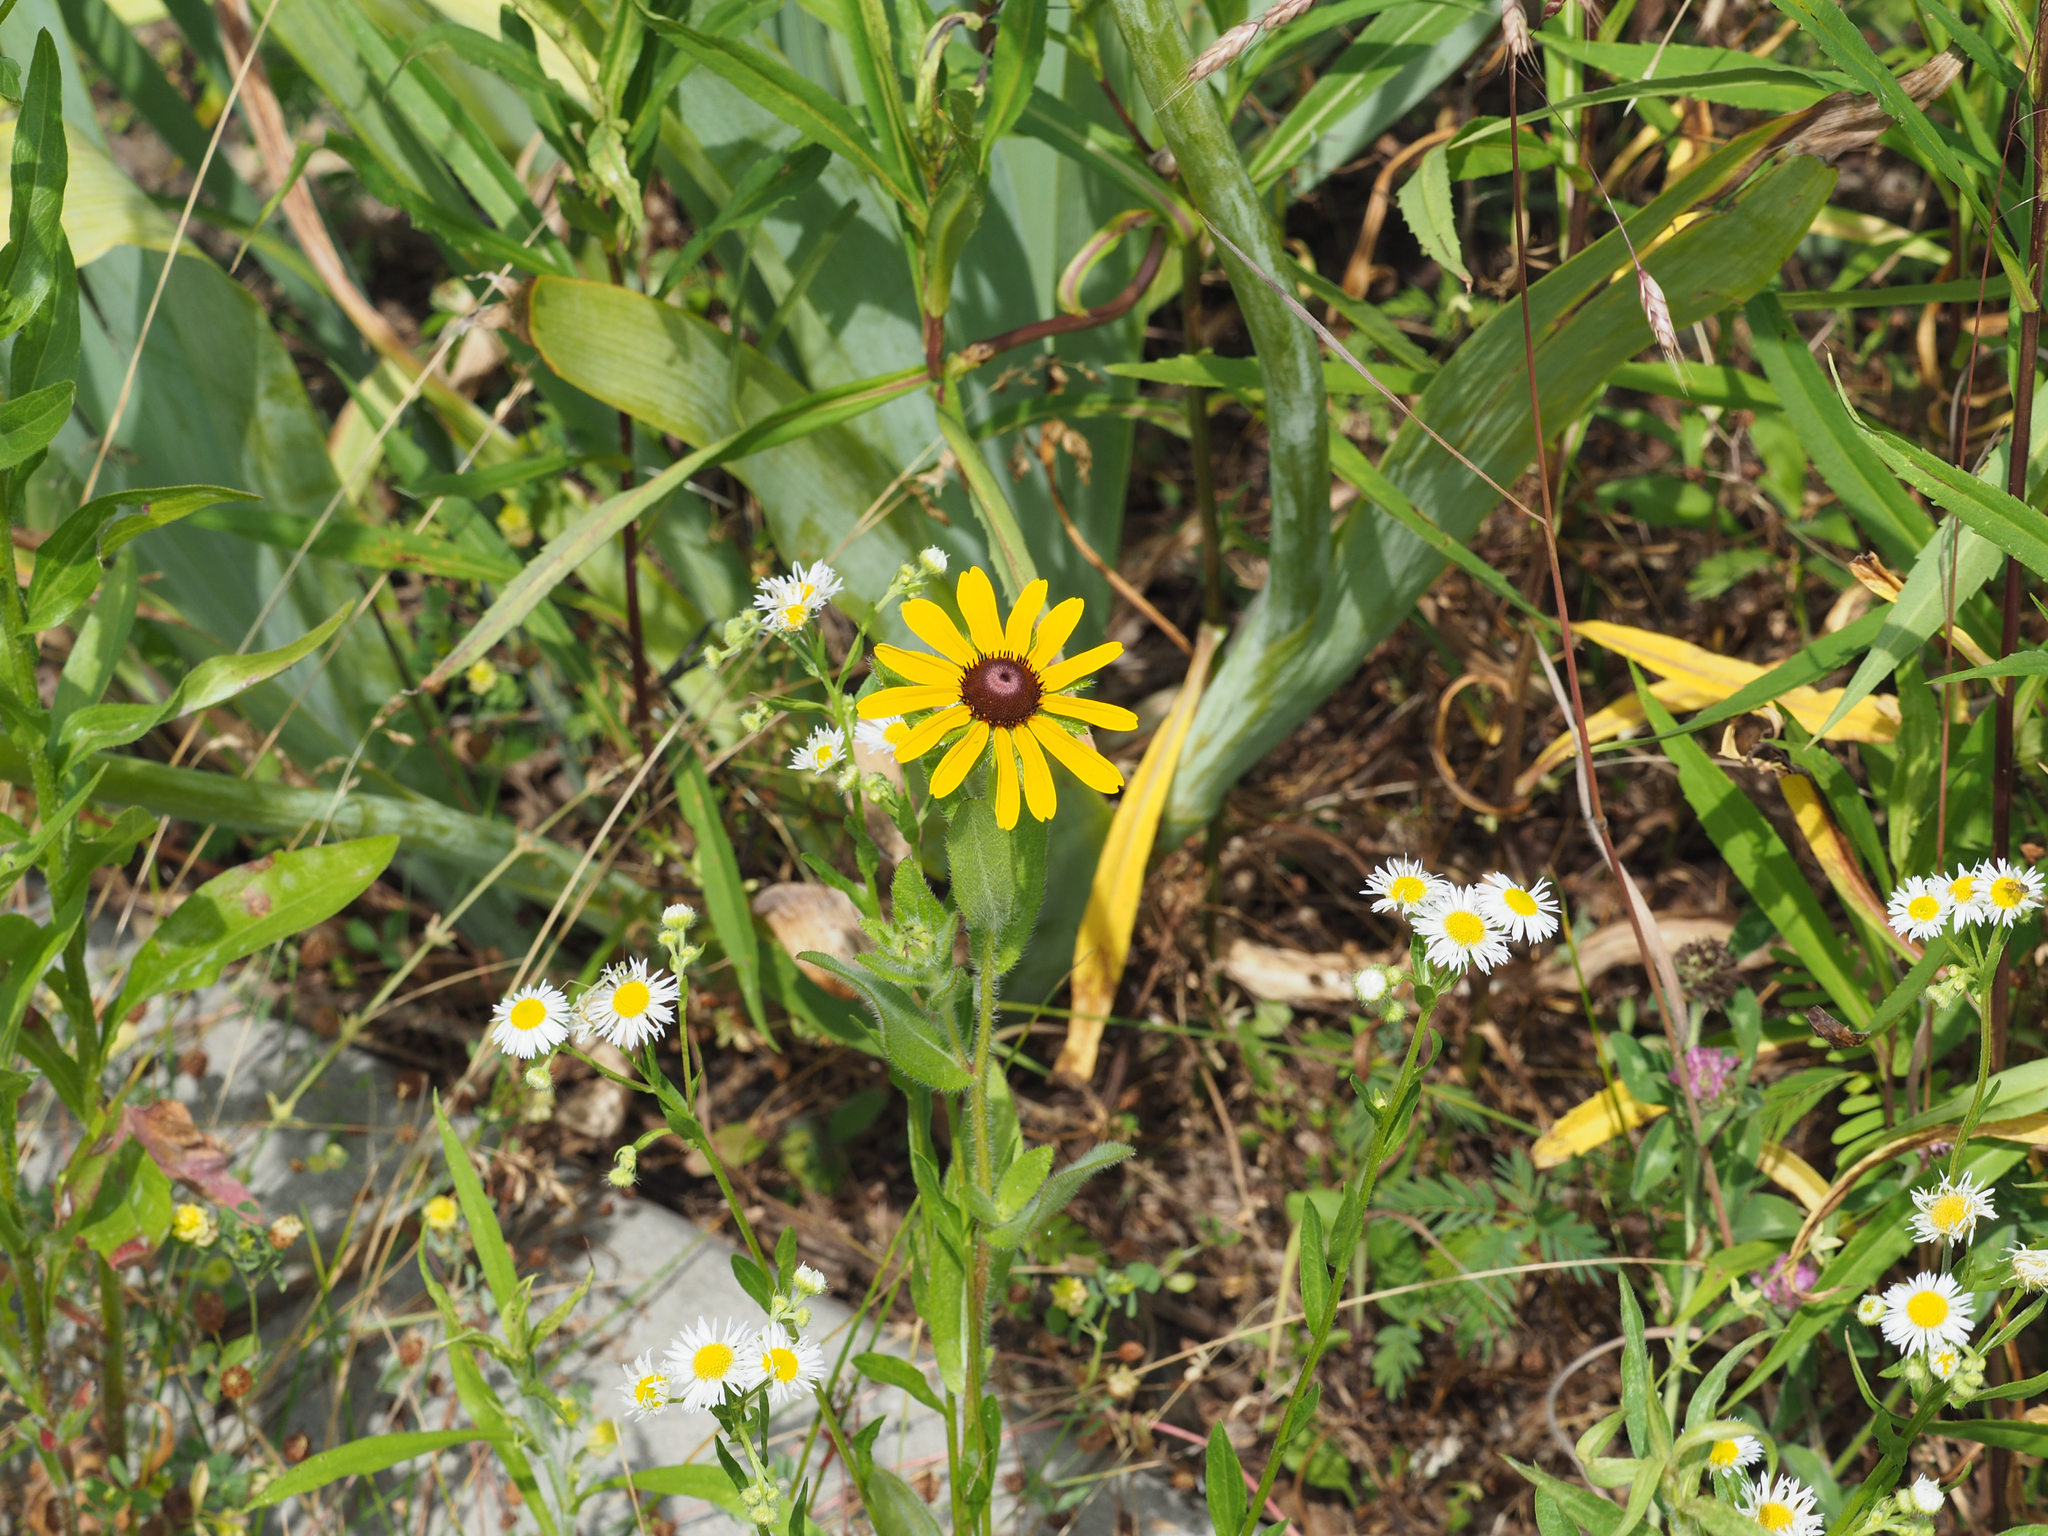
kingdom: Plantae
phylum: Tracheophyta
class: Magnoliopsida
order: Asterales
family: Asteraceae
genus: Rudbeckia
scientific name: Rudbeckia hirta
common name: Black-eyed-susan
